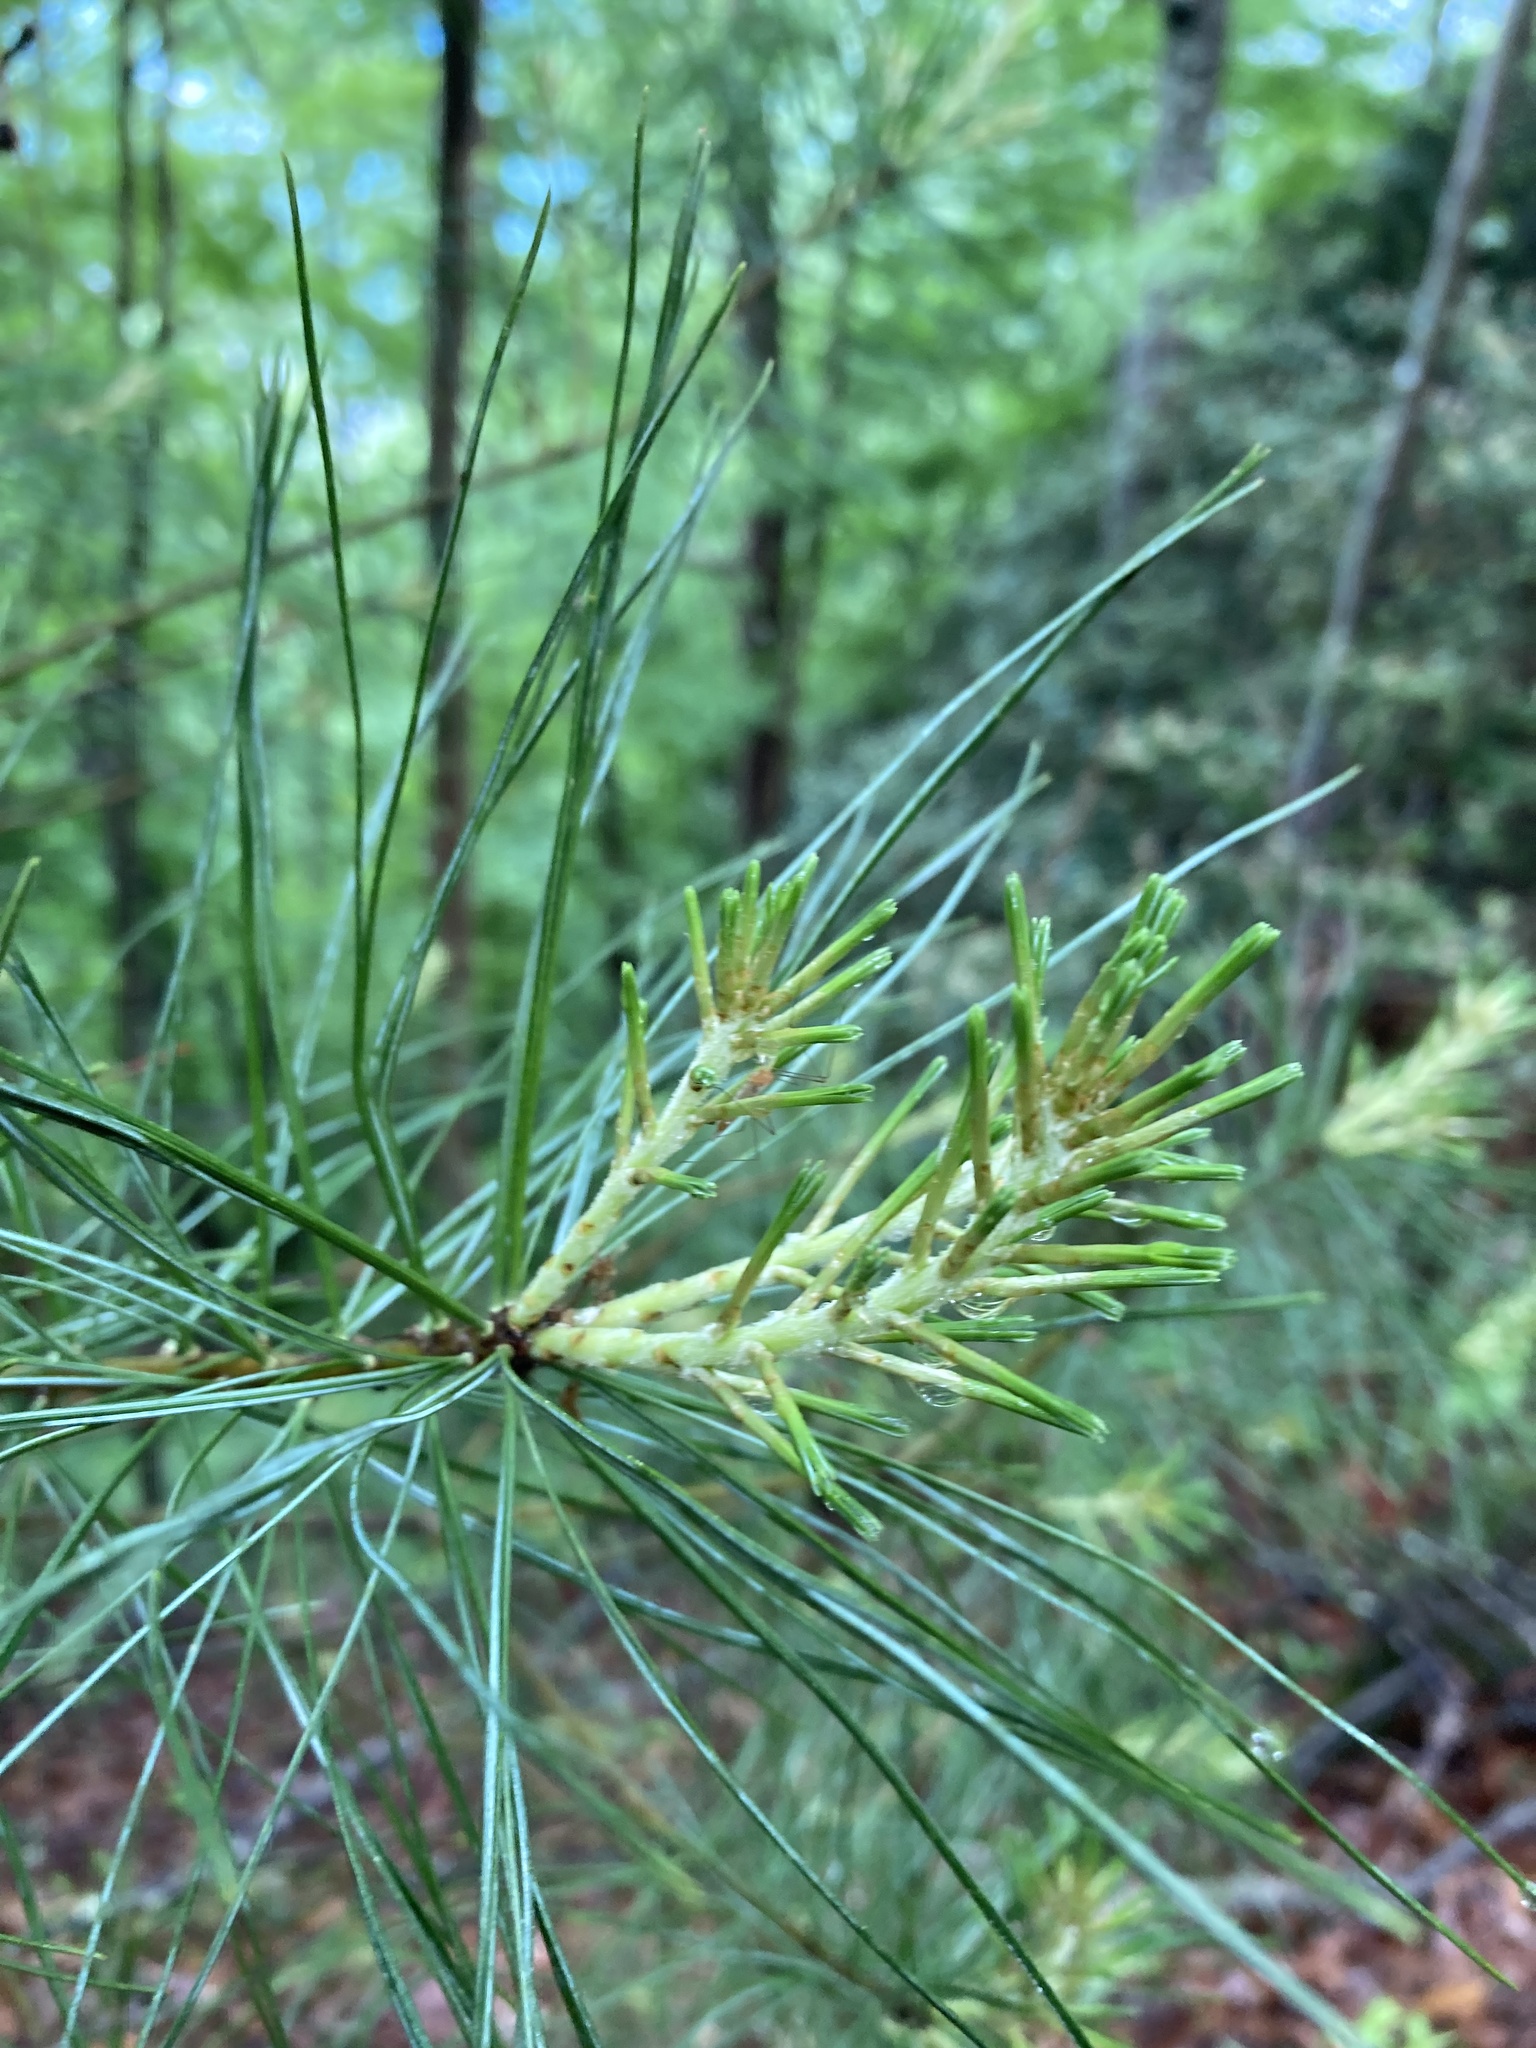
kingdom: Plantae
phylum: Tracheophyta
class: Pinopsida
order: Pinales
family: Pinaceae
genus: Pinus
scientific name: Pinus strobus
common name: Weymouth pine
